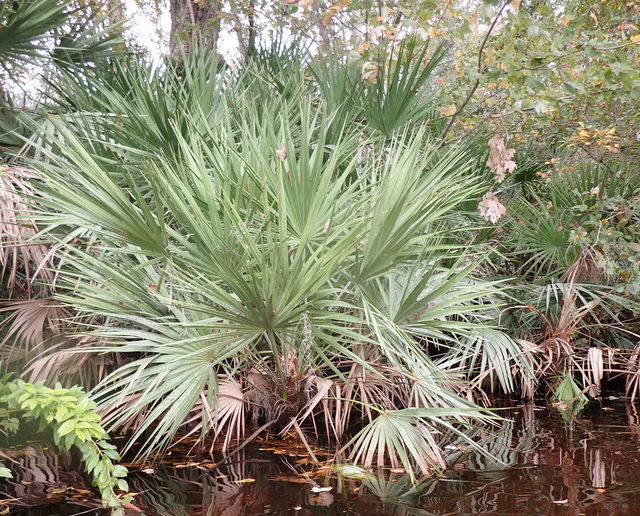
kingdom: Plantae
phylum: Tracheophyta
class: Liliopsida
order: Arecales
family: Arecaceae
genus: Serenoa
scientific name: Serenoa repens
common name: Saw-palmetto
